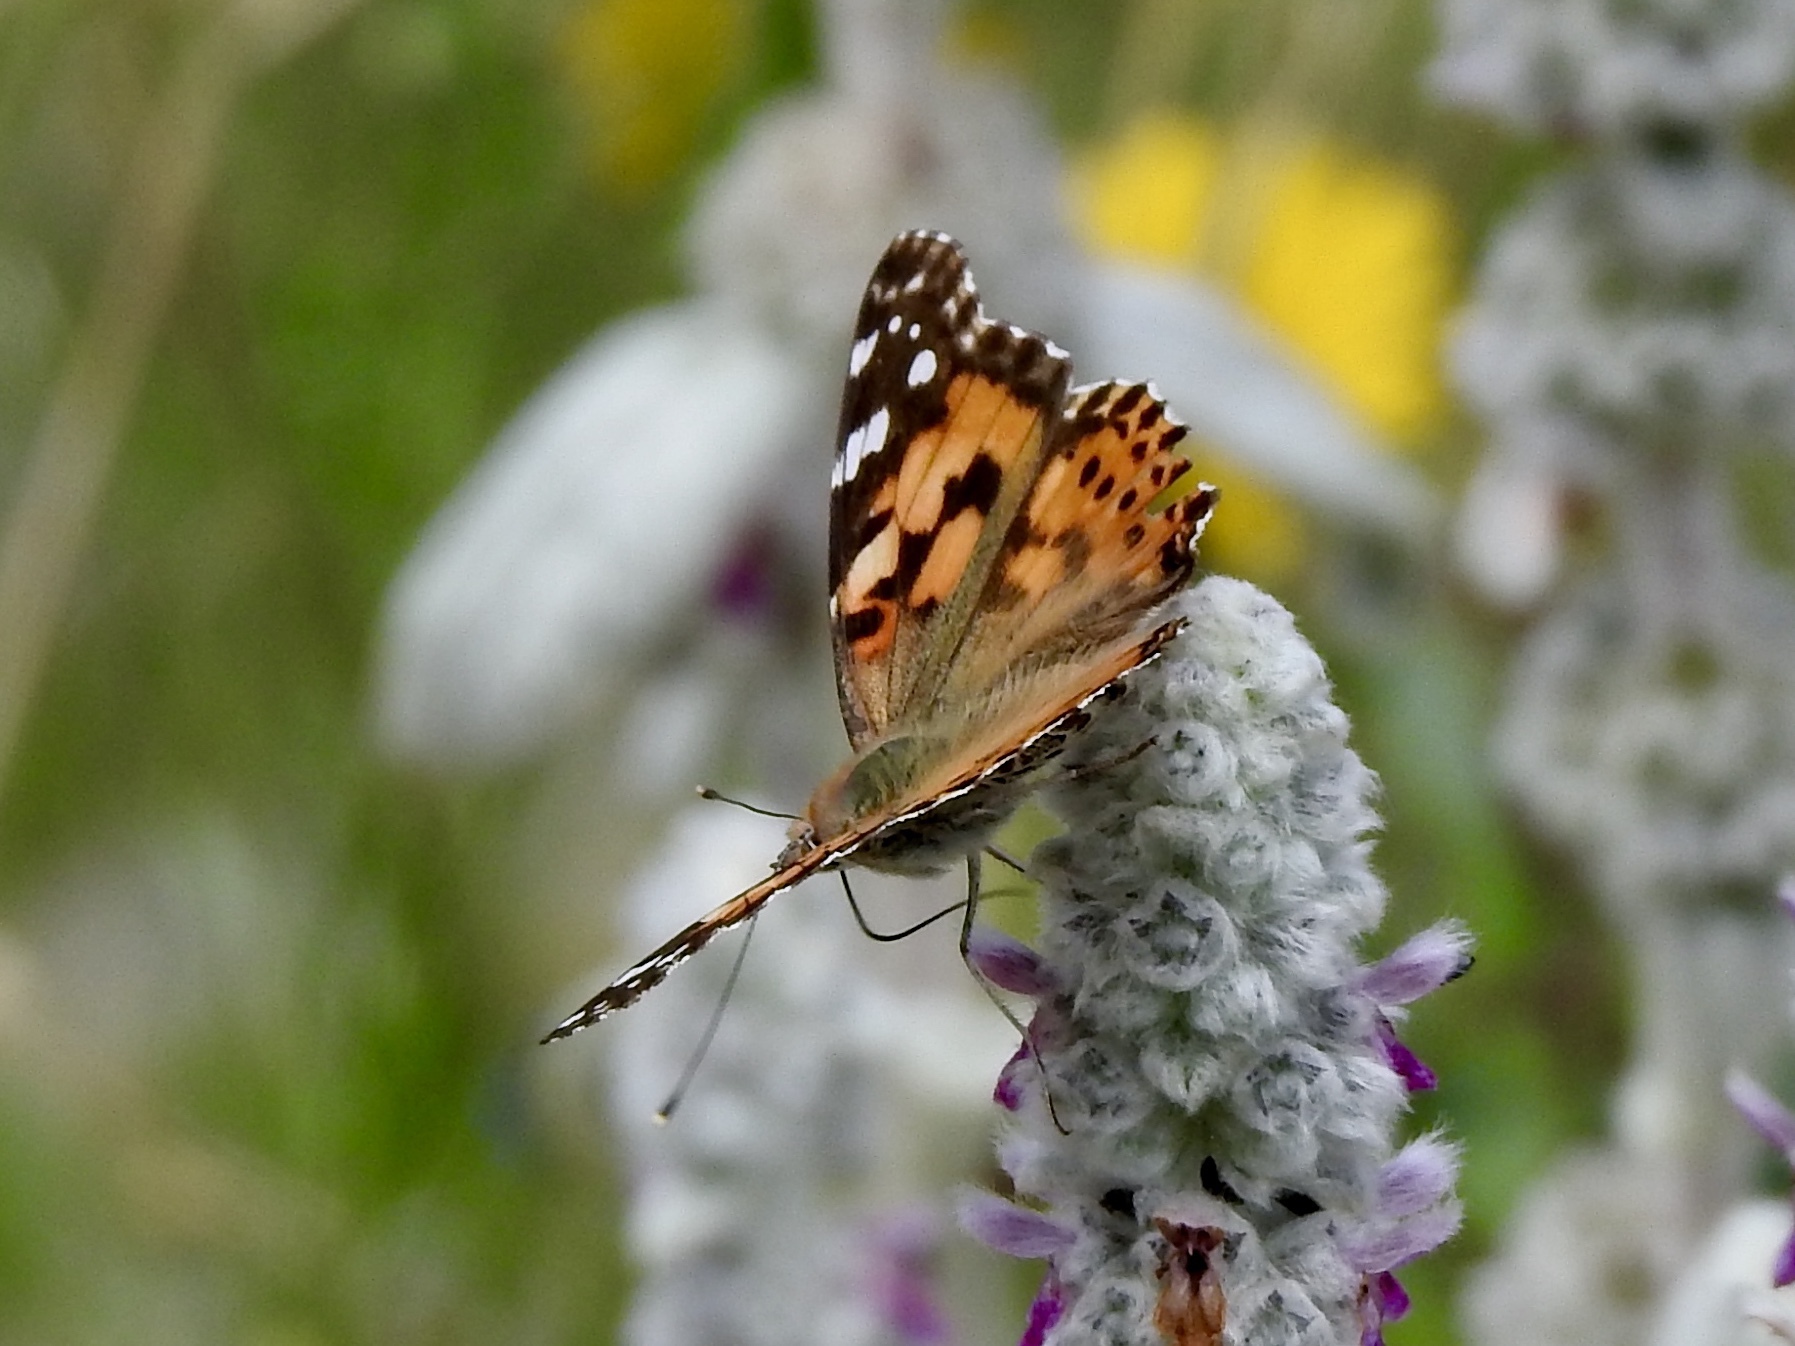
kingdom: Animalia
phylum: Arthropoda
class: Insecta
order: Lepidoptera
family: Nymphalidae
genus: Vanessa
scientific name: Vanessa cardui
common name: Painted lady
